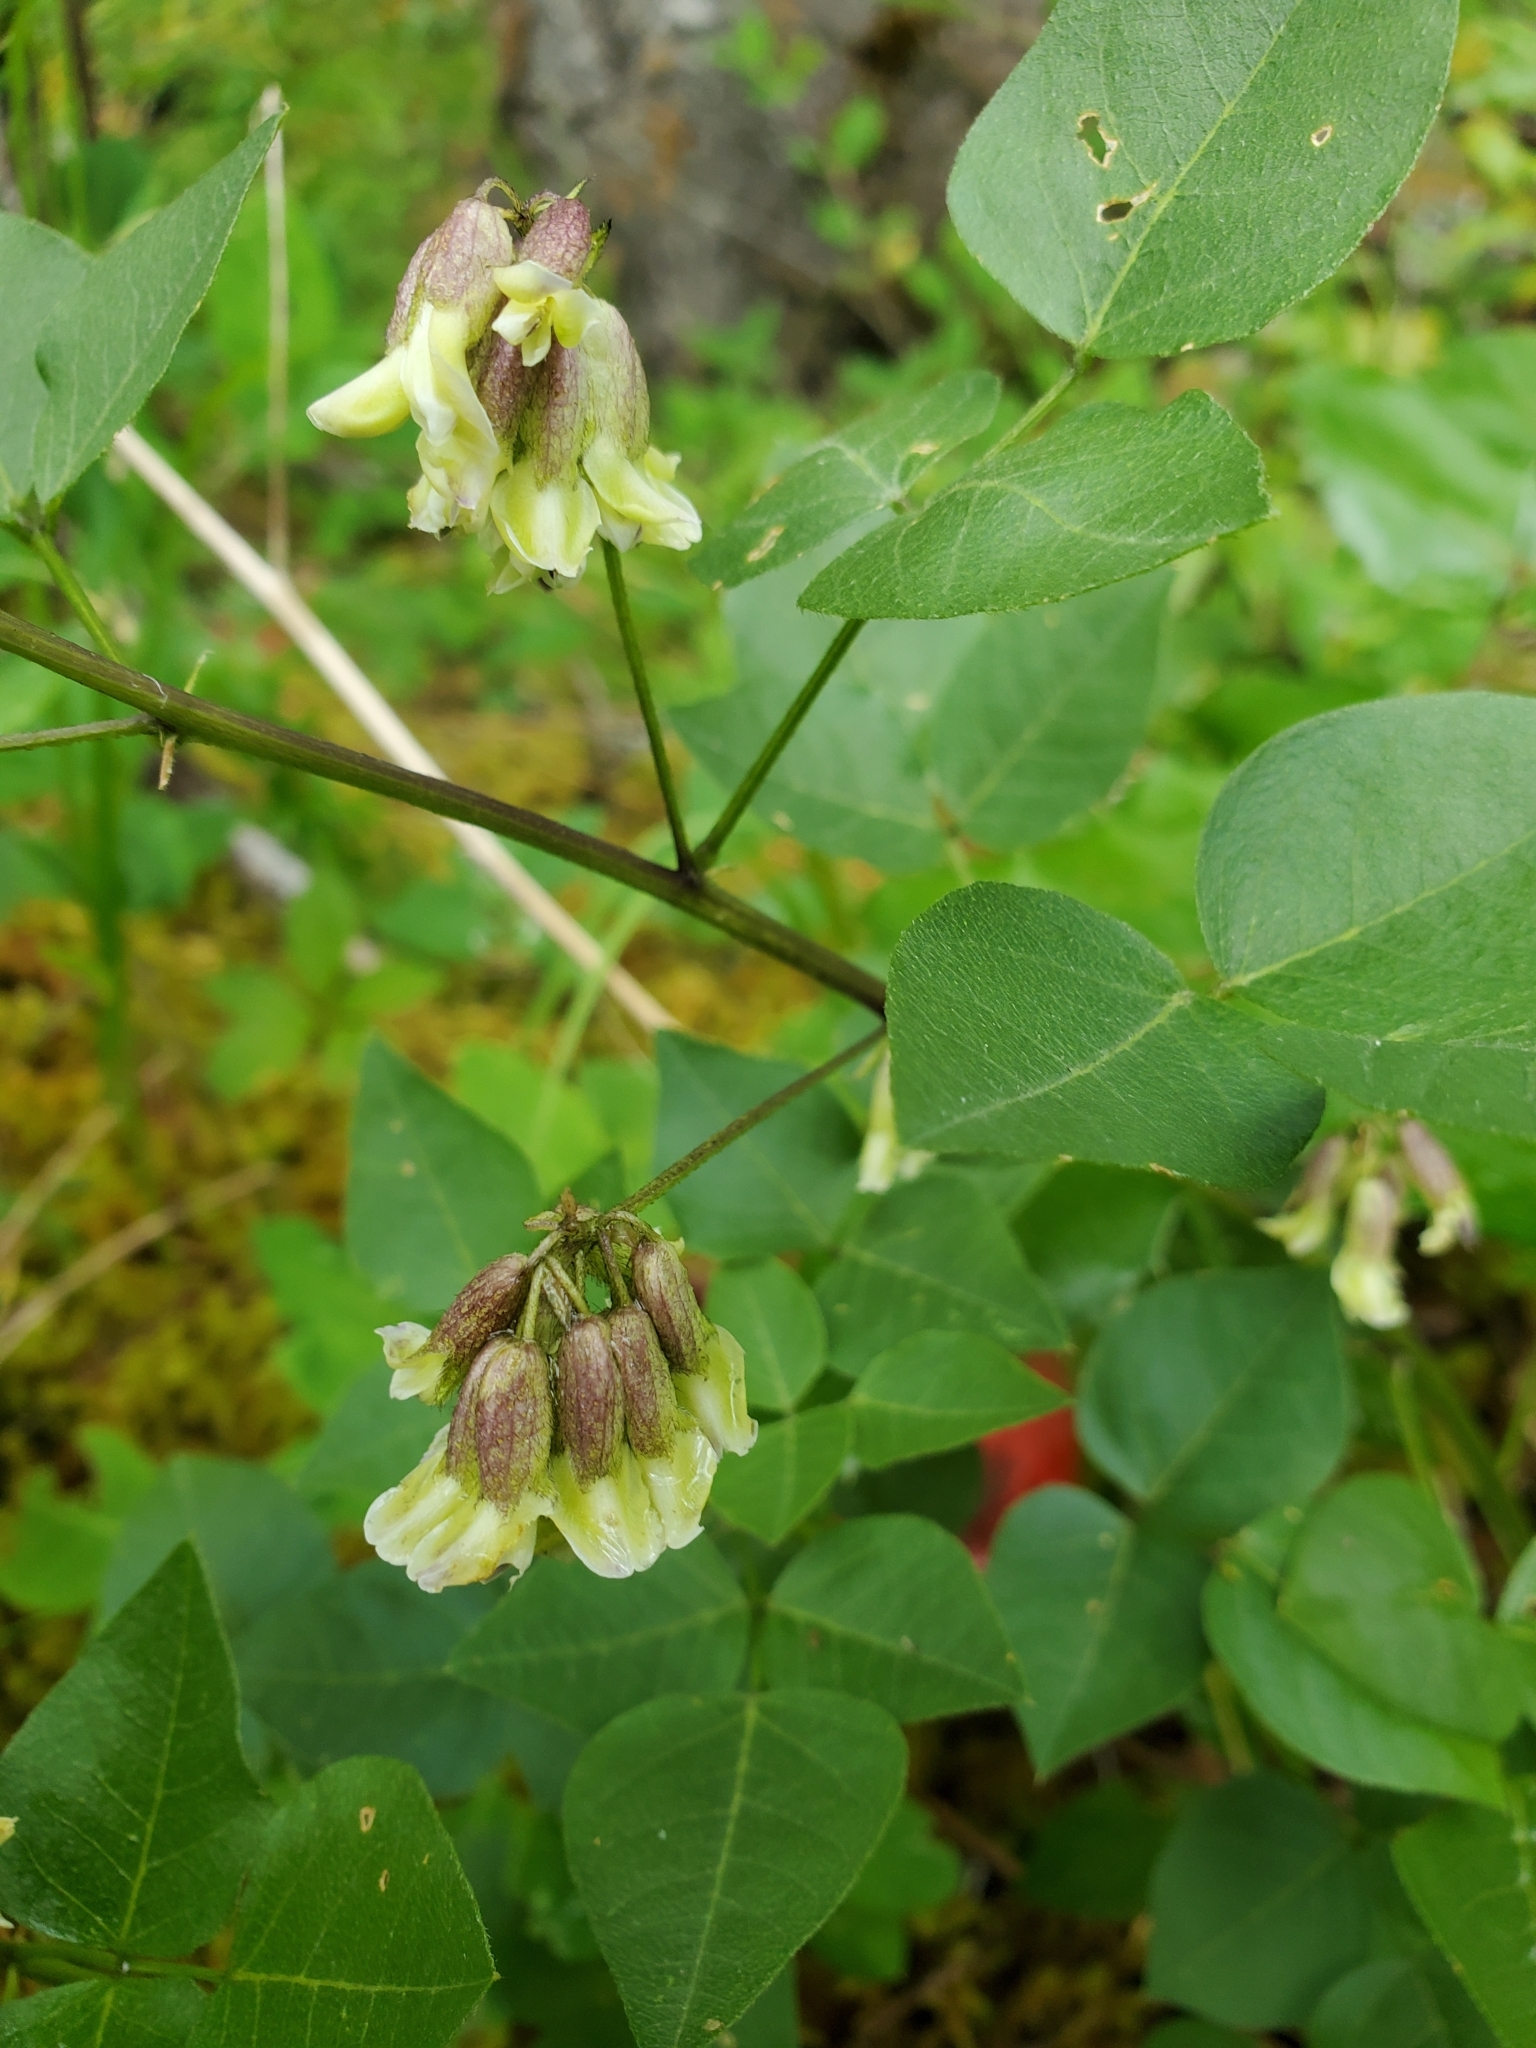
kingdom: Plantae
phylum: Tracheophyta
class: Magnoliopsida
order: Fabales
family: Fabaceae
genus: Rupertia
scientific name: Rupertia physodes
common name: California-tea
